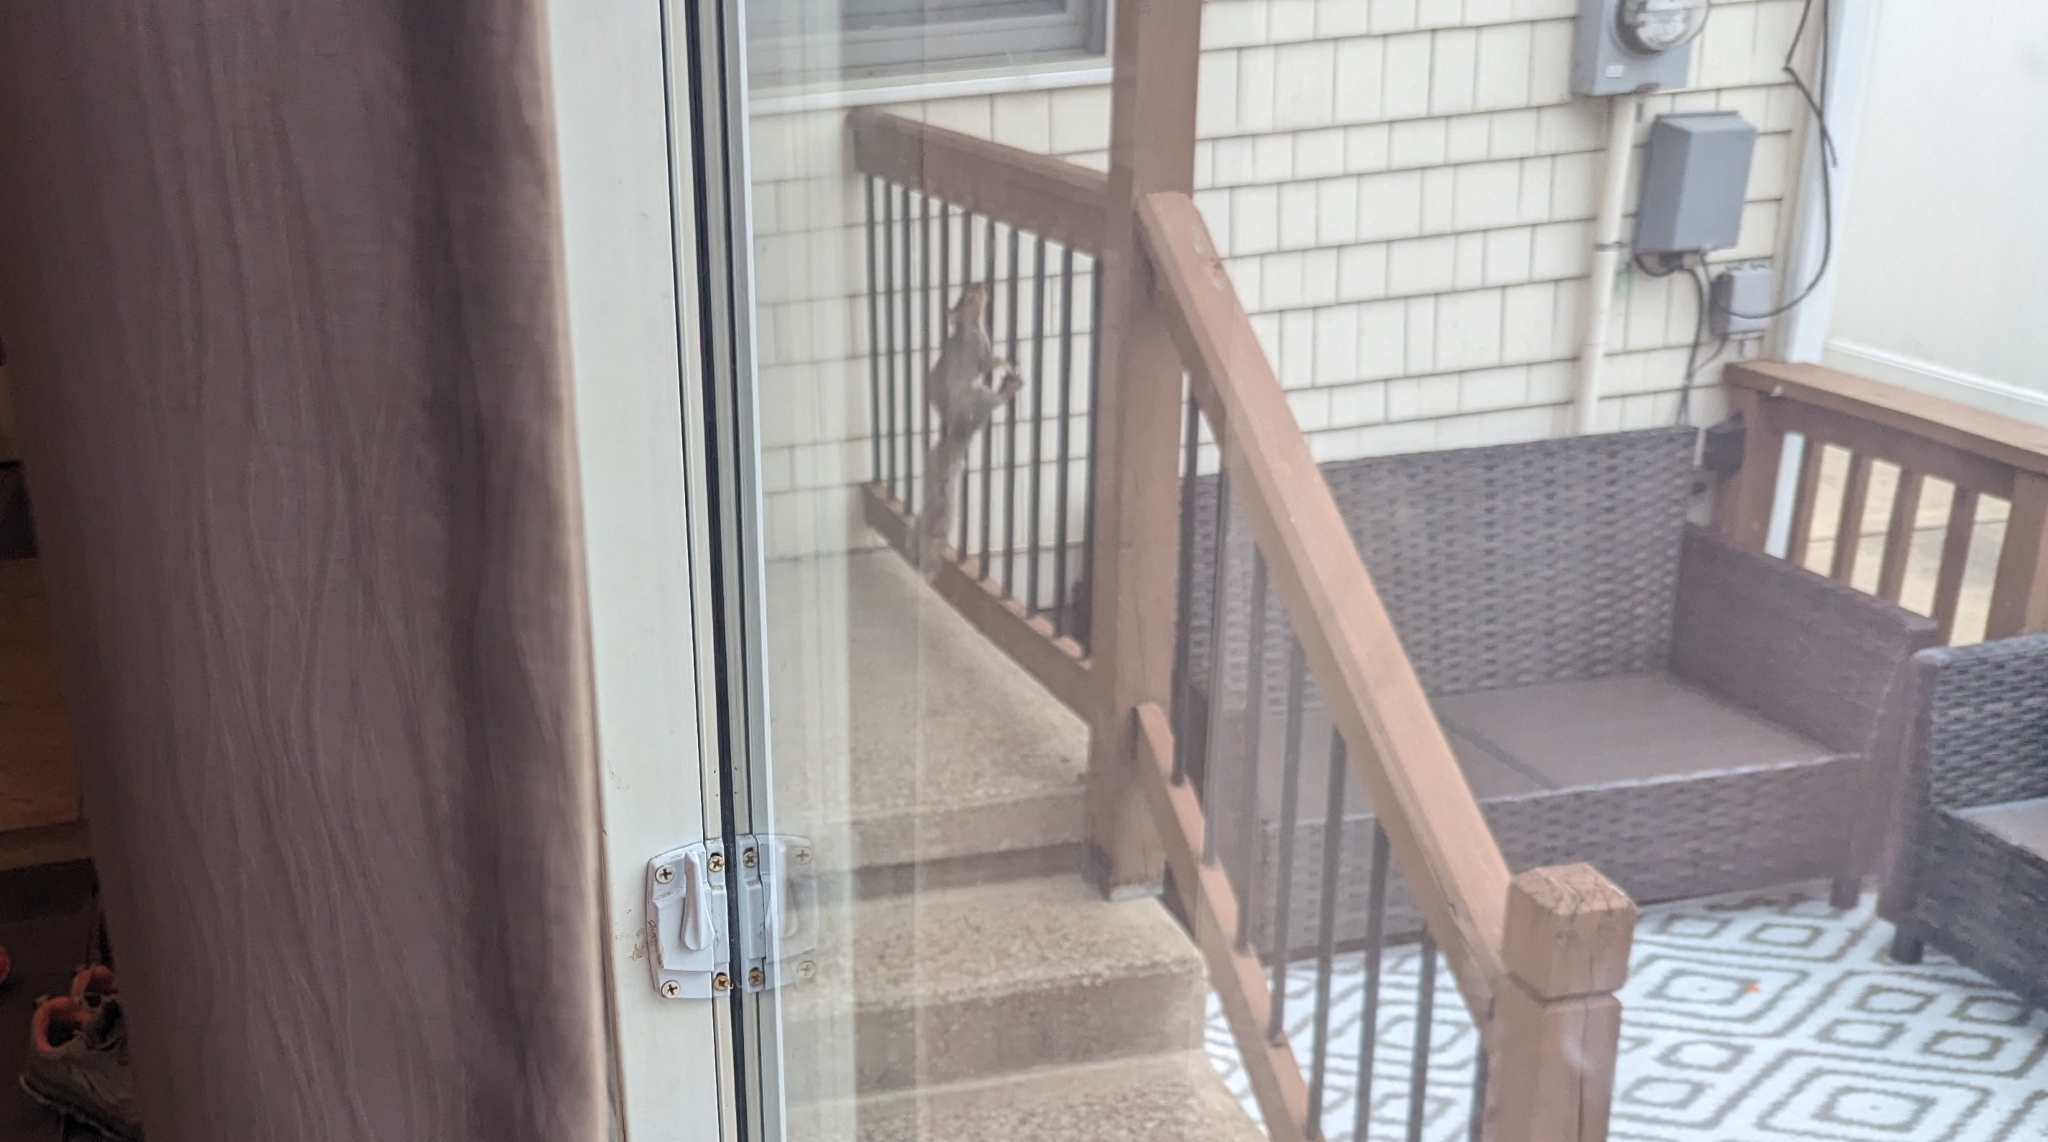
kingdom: Animalia
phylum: Chordata
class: Mammalia
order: Rodentia
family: Sciuridae
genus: Sciurus
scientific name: Sciurus carolinensis
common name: Eastern gray squirrel
